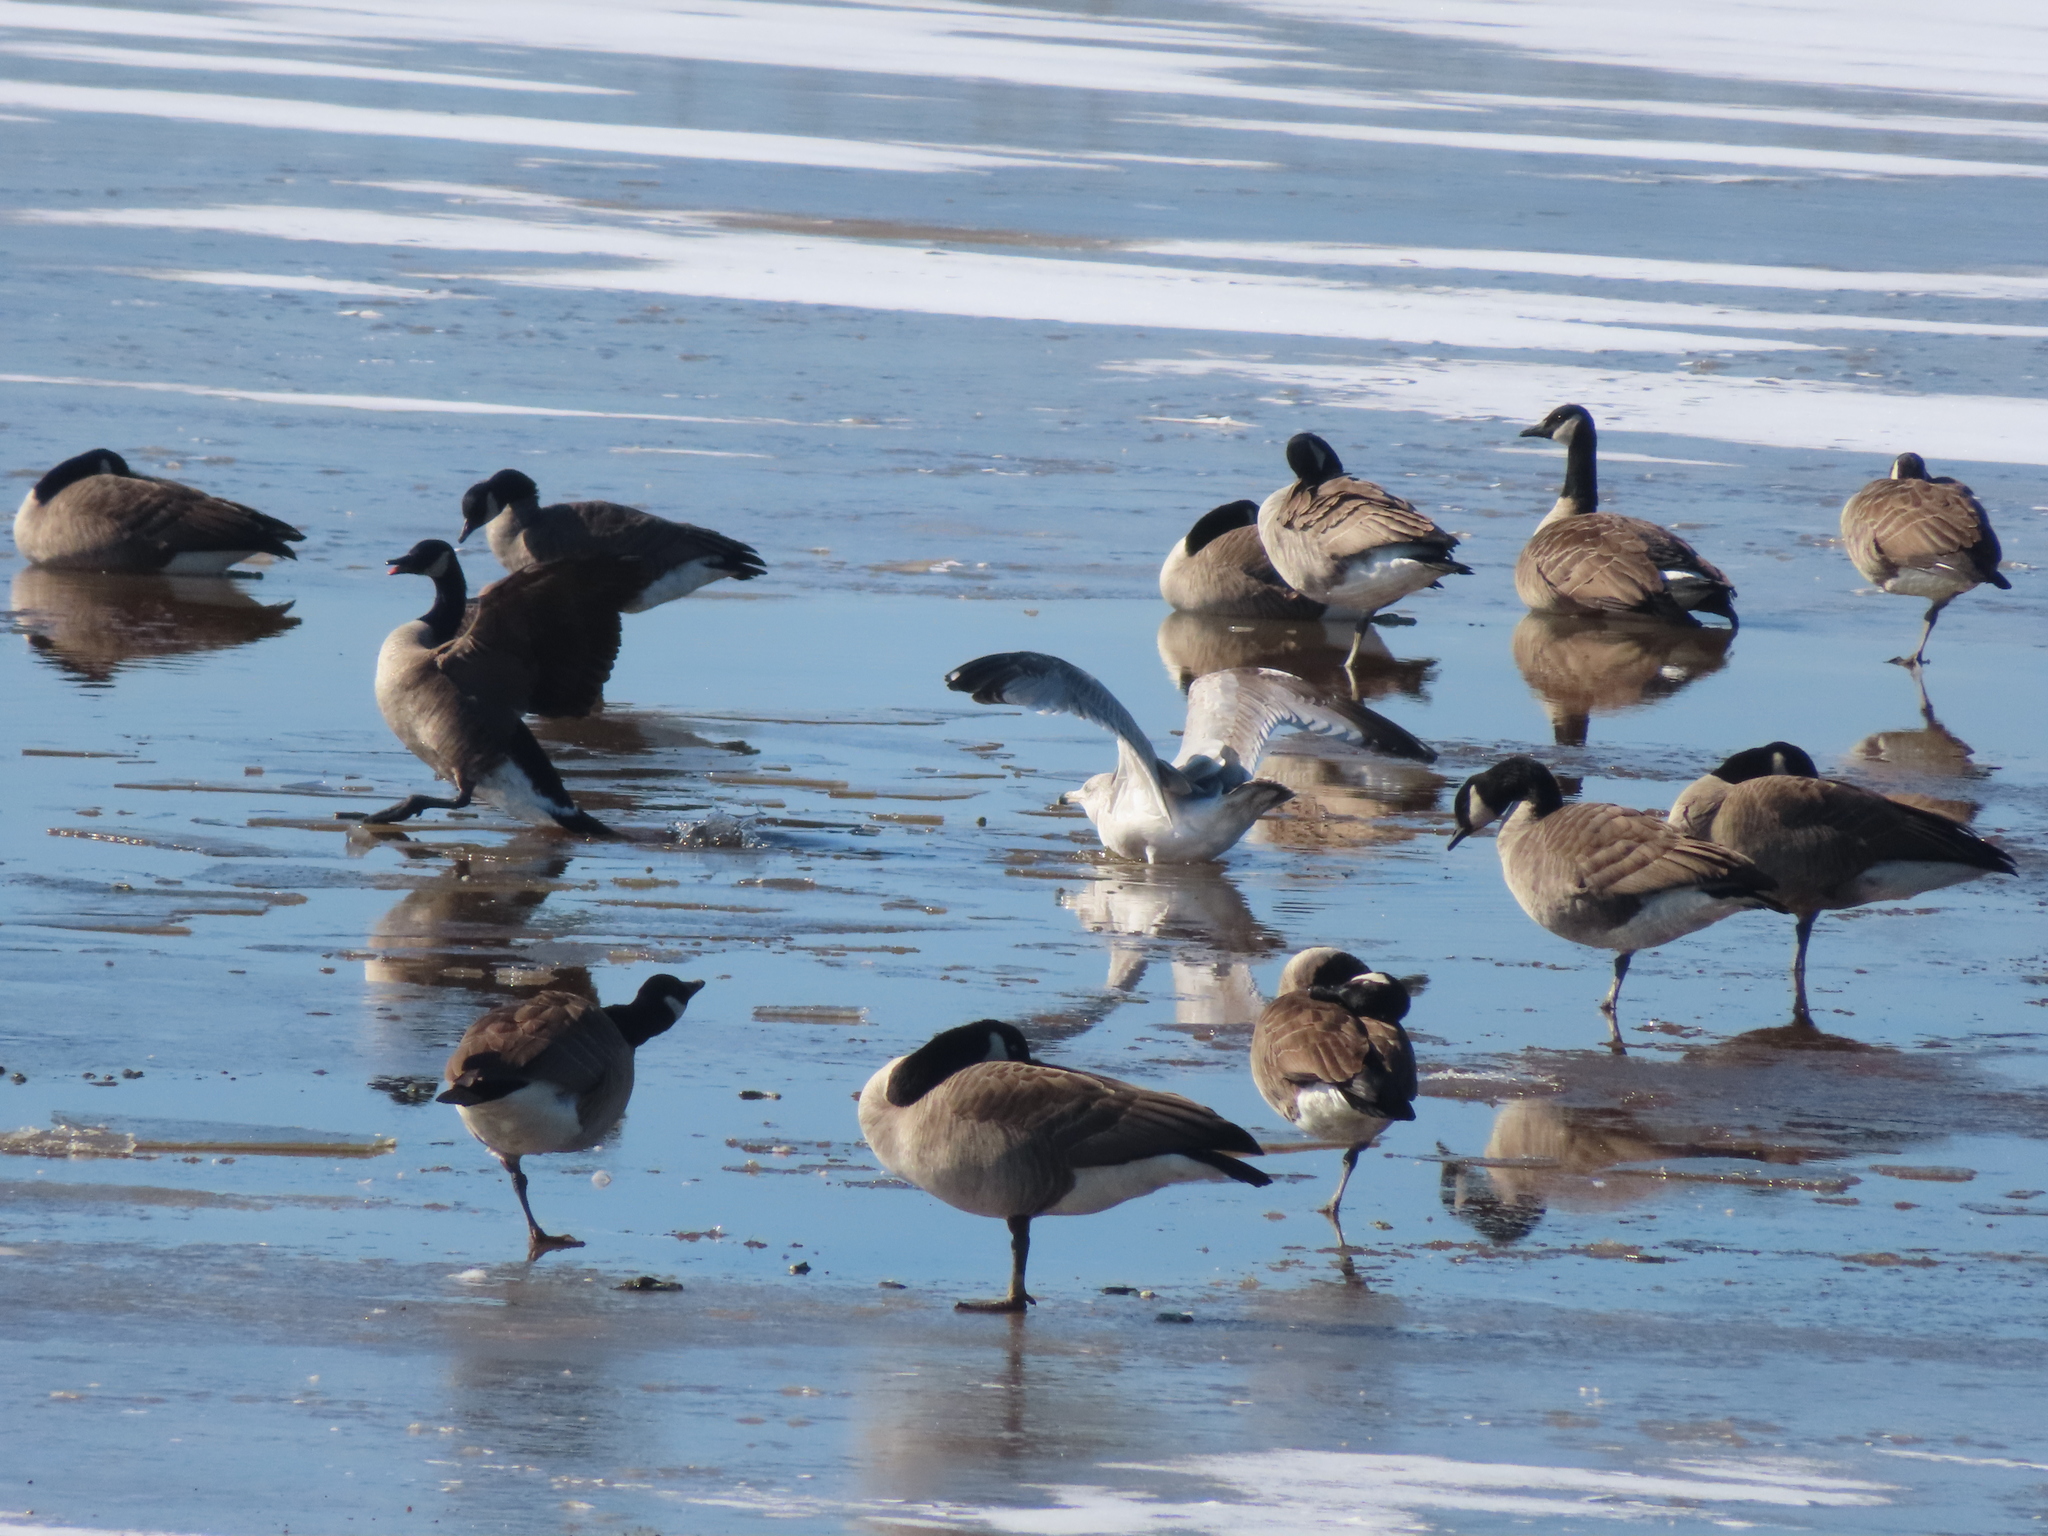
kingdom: Animalia
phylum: Chordata
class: Aves
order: Anseriformes
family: Anatidae
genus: Branta
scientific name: Branta canadensis
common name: Canada goose
